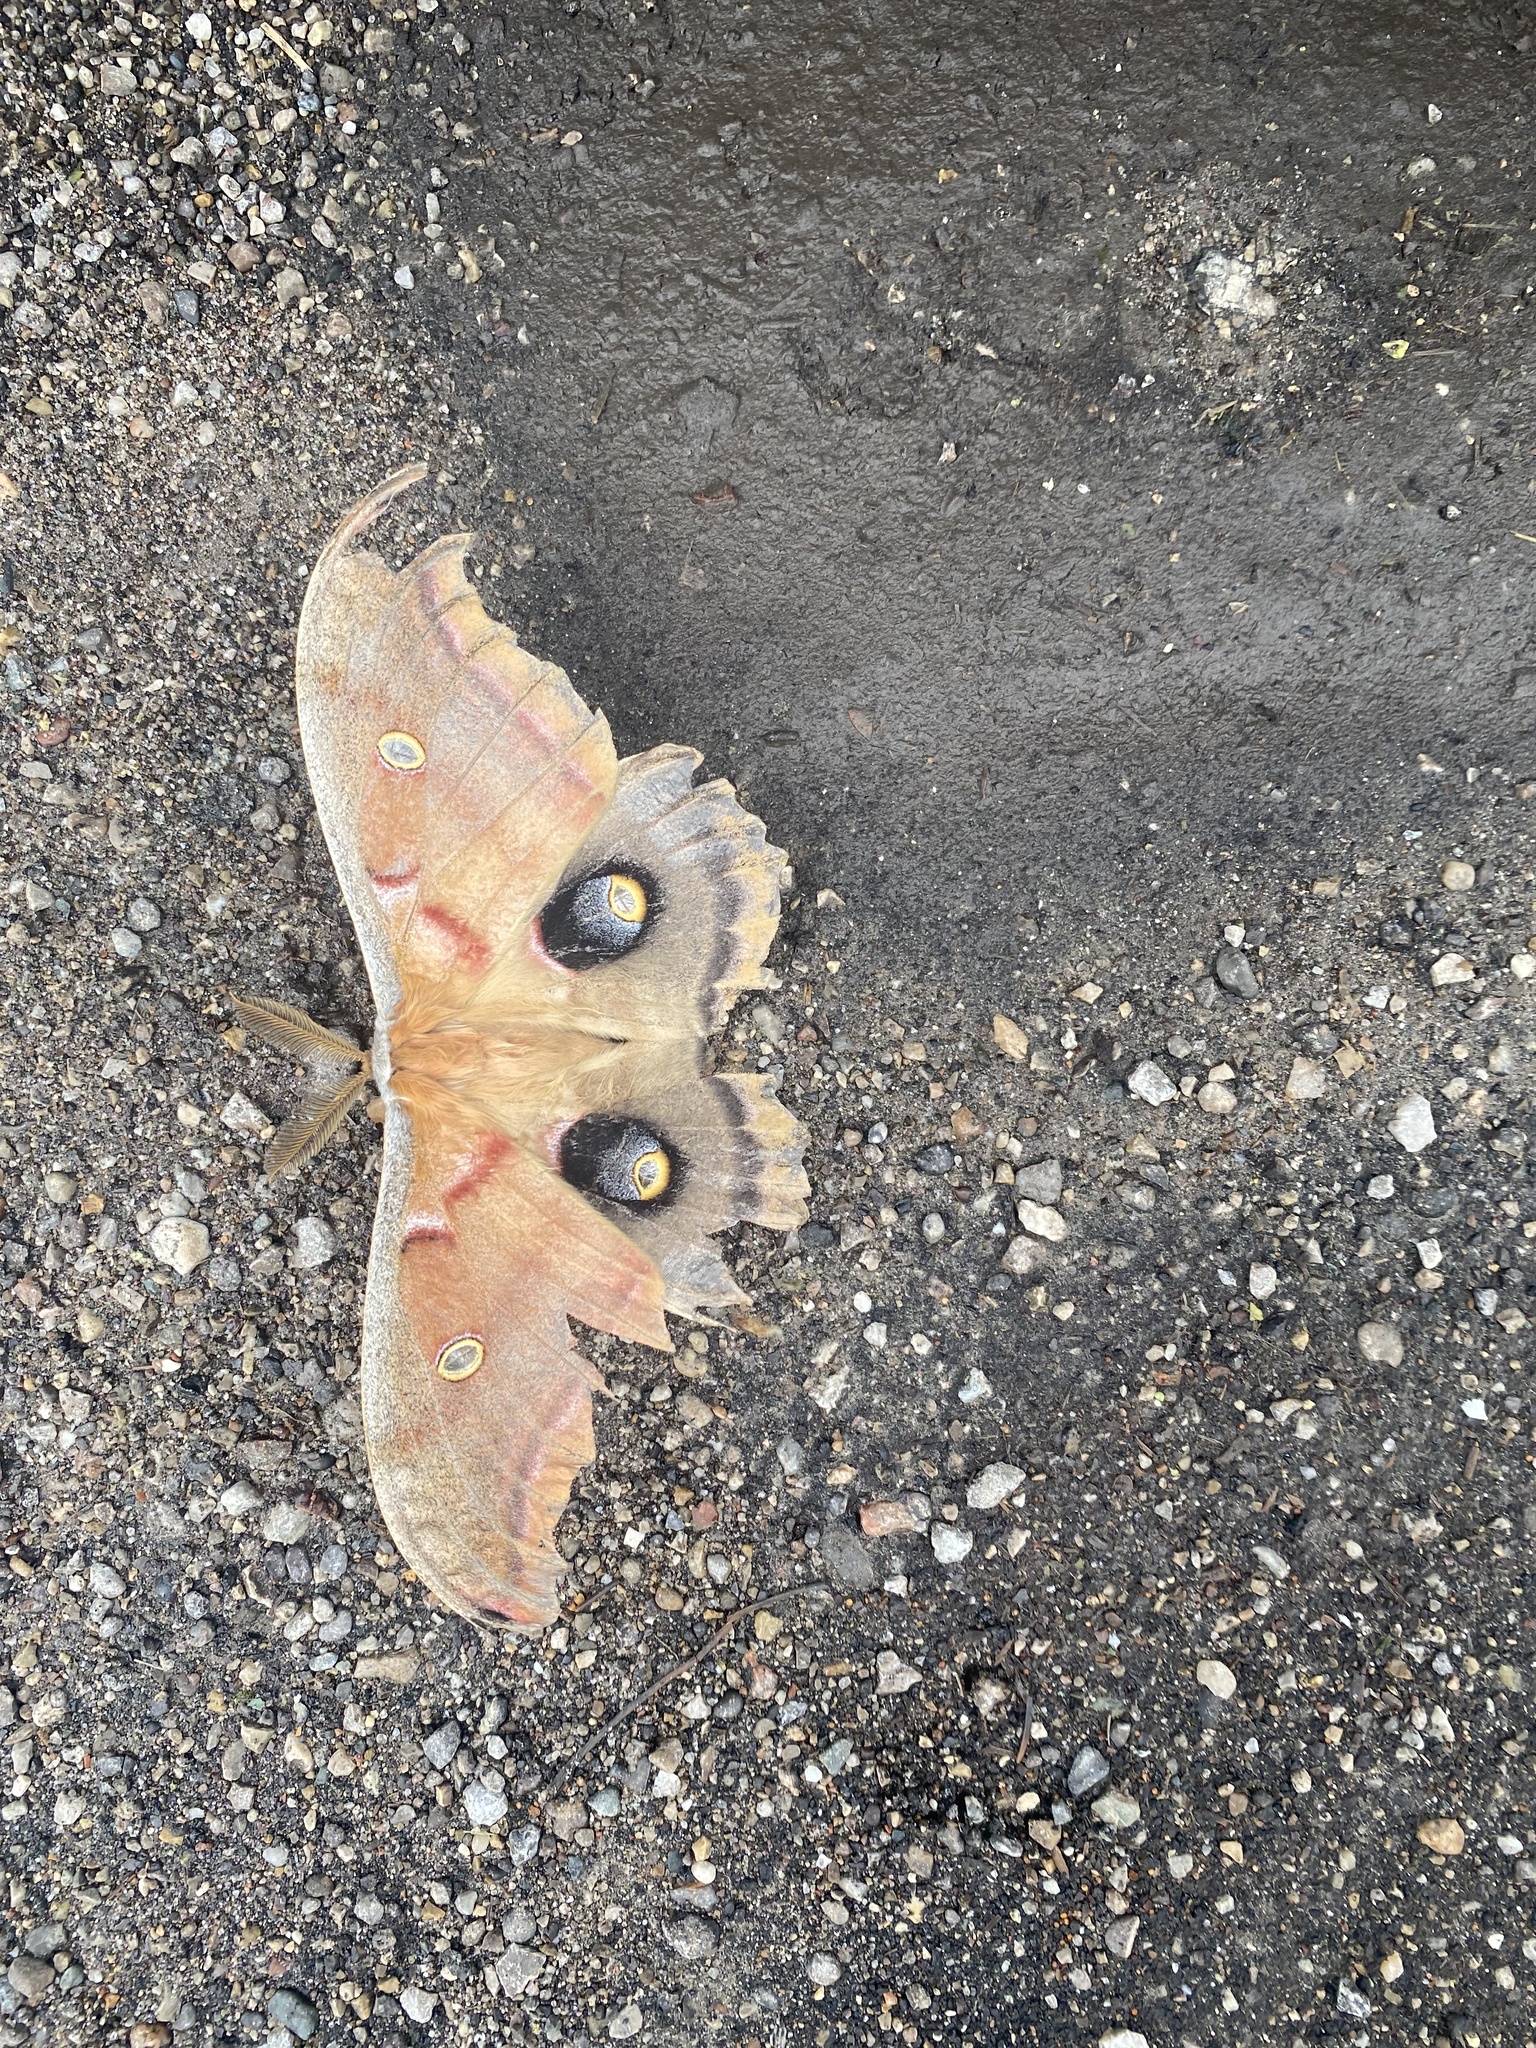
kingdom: Animalia
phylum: Arthropoda
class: Insecta
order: Lepidoptera
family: Saturniidae
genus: Antheraea
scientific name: Antheraea polyphemus
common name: Polyphemus moth
